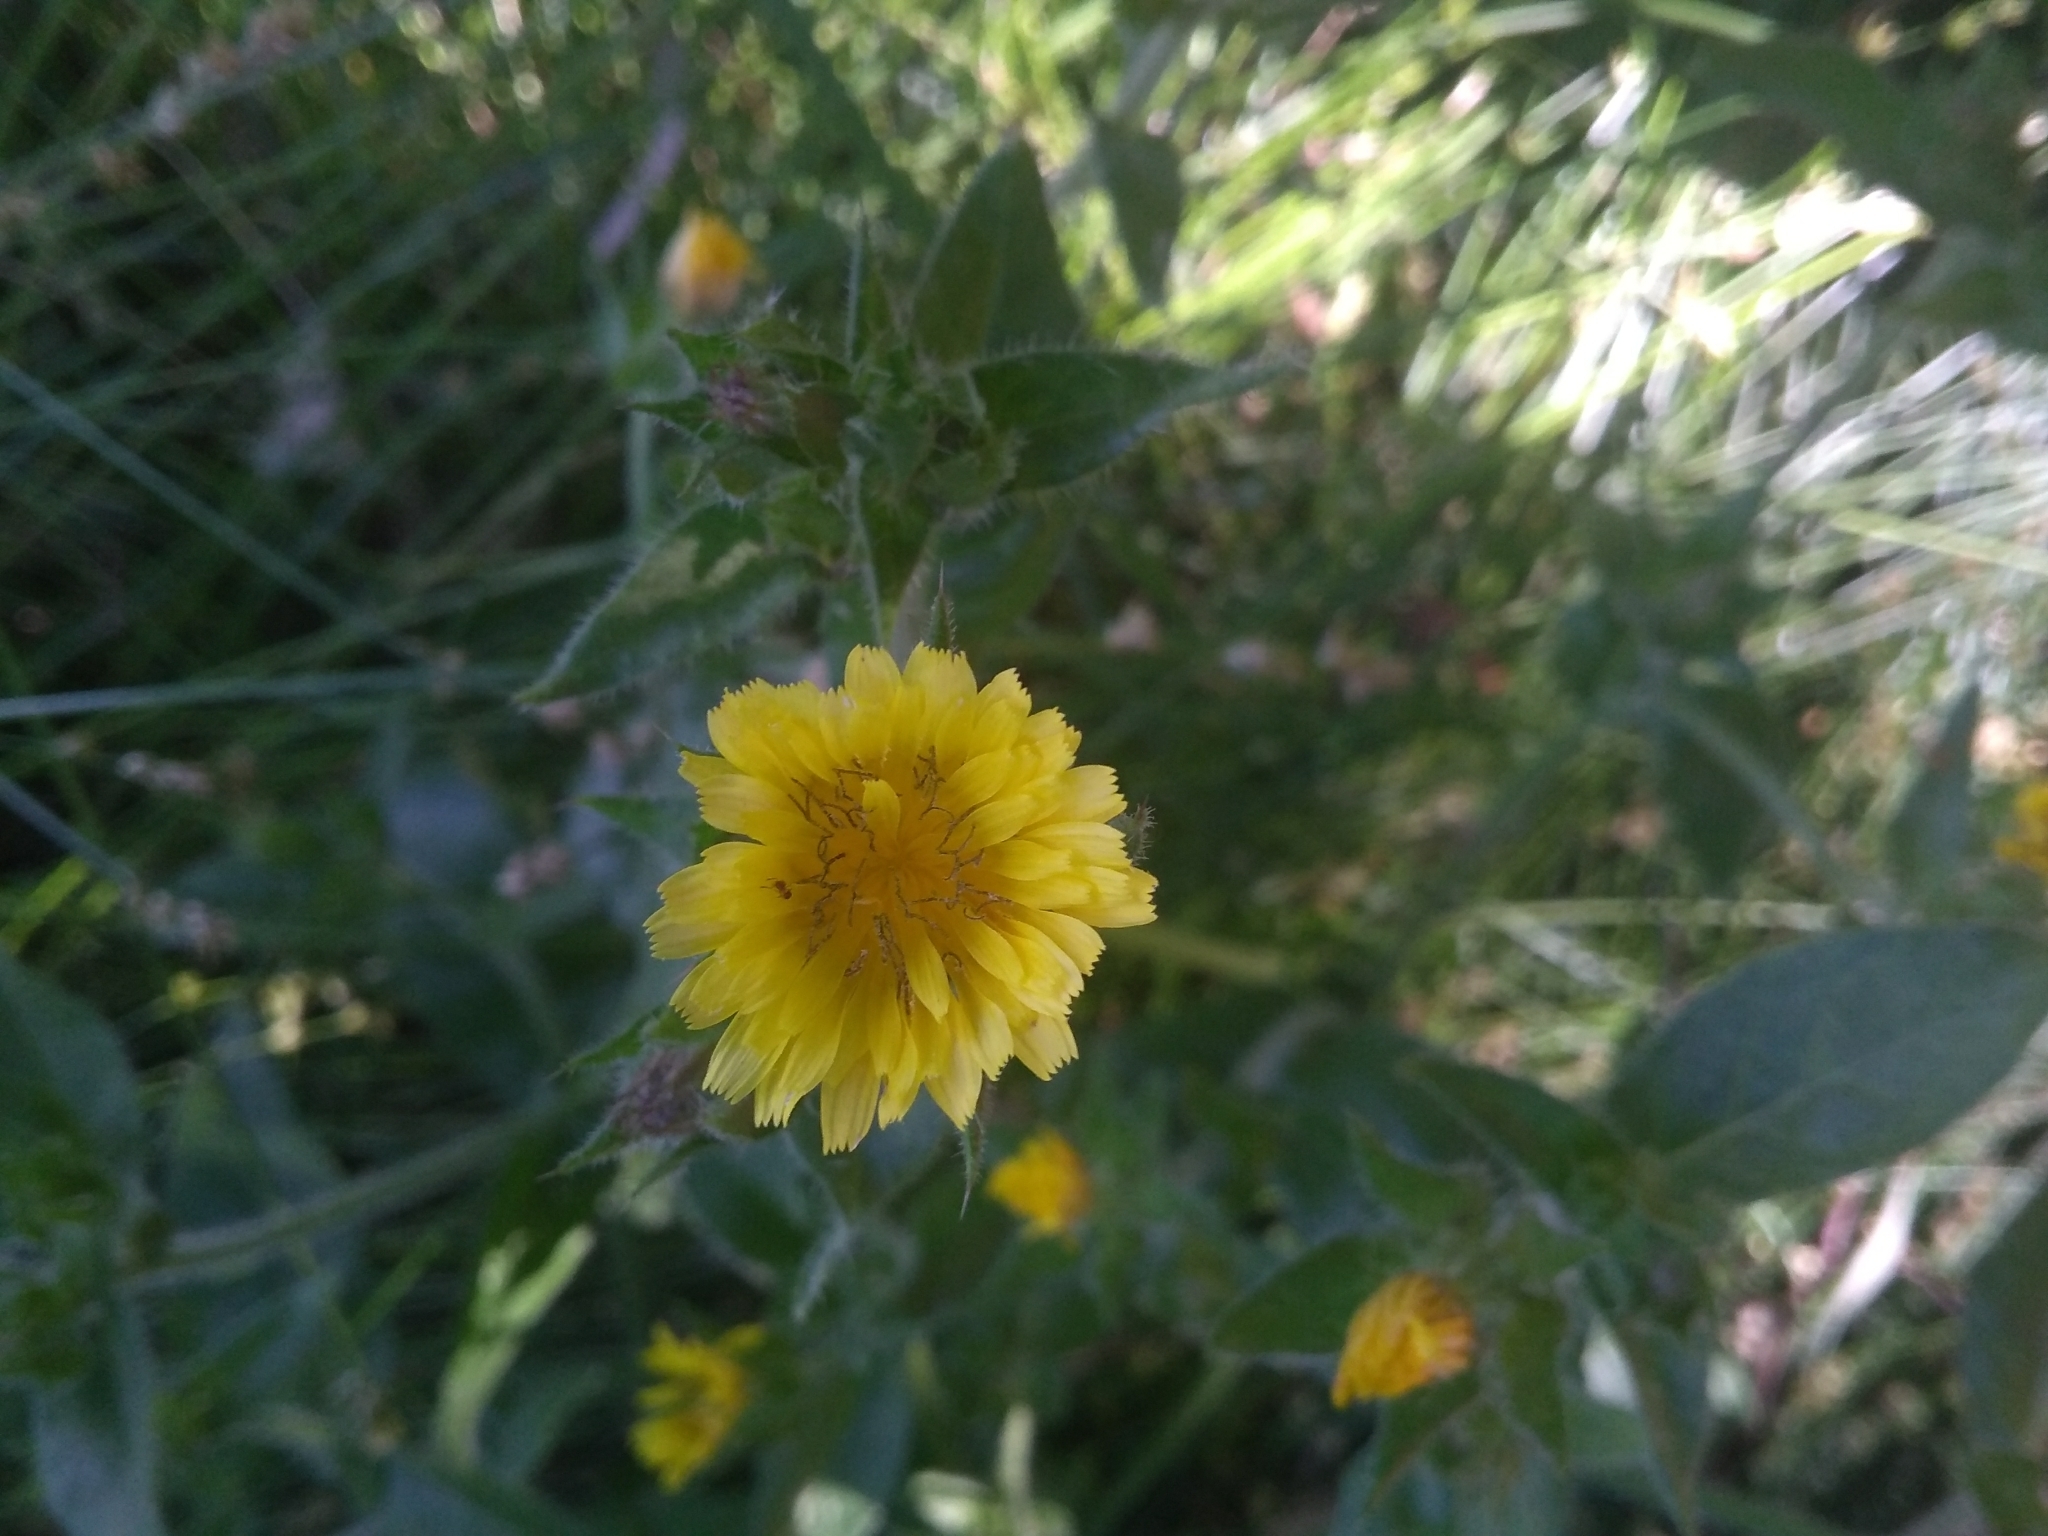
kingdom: Plantae
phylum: Tracheophyta
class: Magnoliopsida
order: Asterales
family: Asteraceae
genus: Helminthotheca
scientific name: Helminthotheca echioides
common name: Ox-tongue
